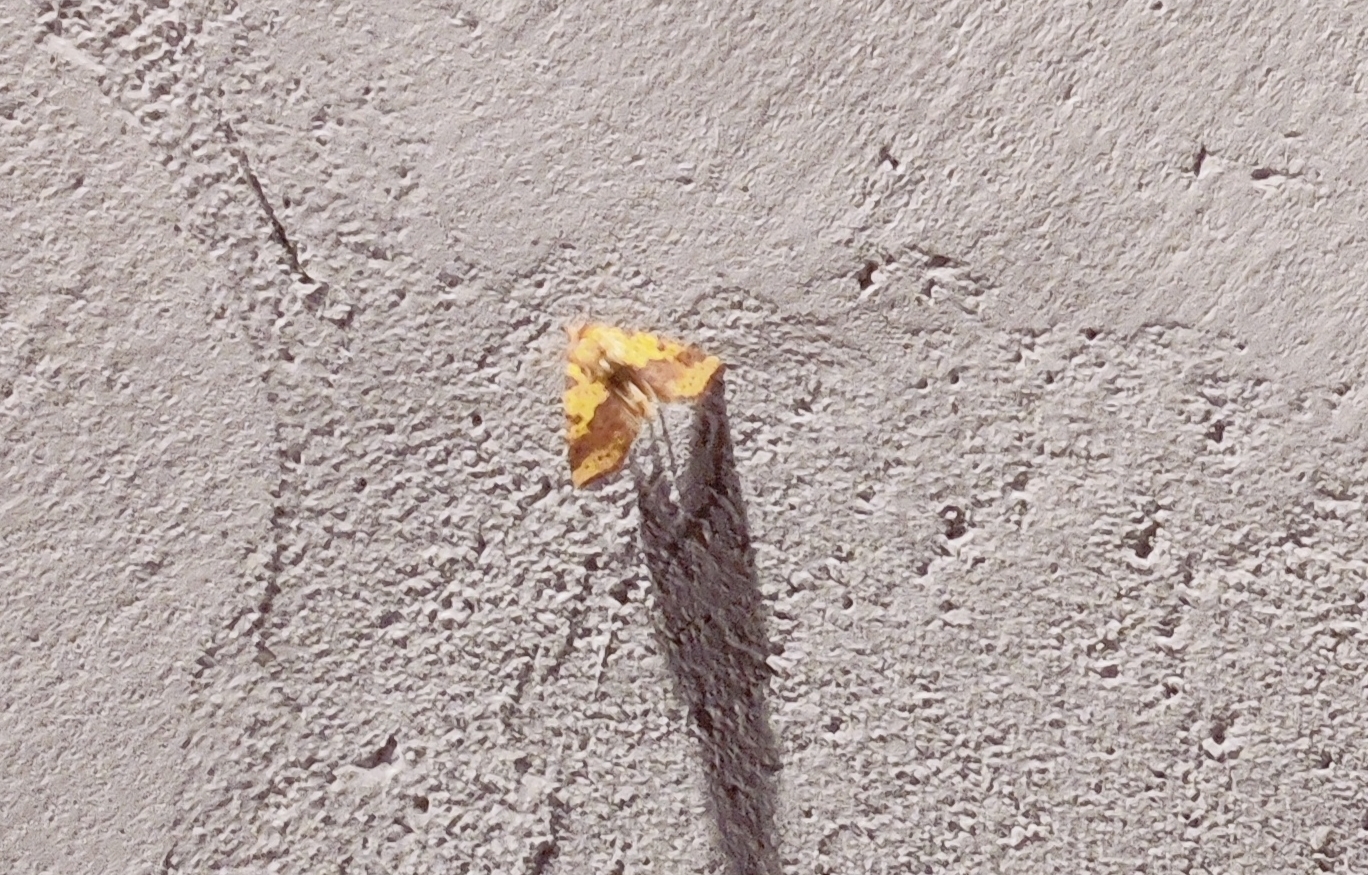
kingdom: Animalia
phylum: Arthropoda
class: Insecta
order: Lepidoptera
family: Noctuidae
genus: Xanthia
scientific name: Xanthia togata
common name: Pink-barred sallow
